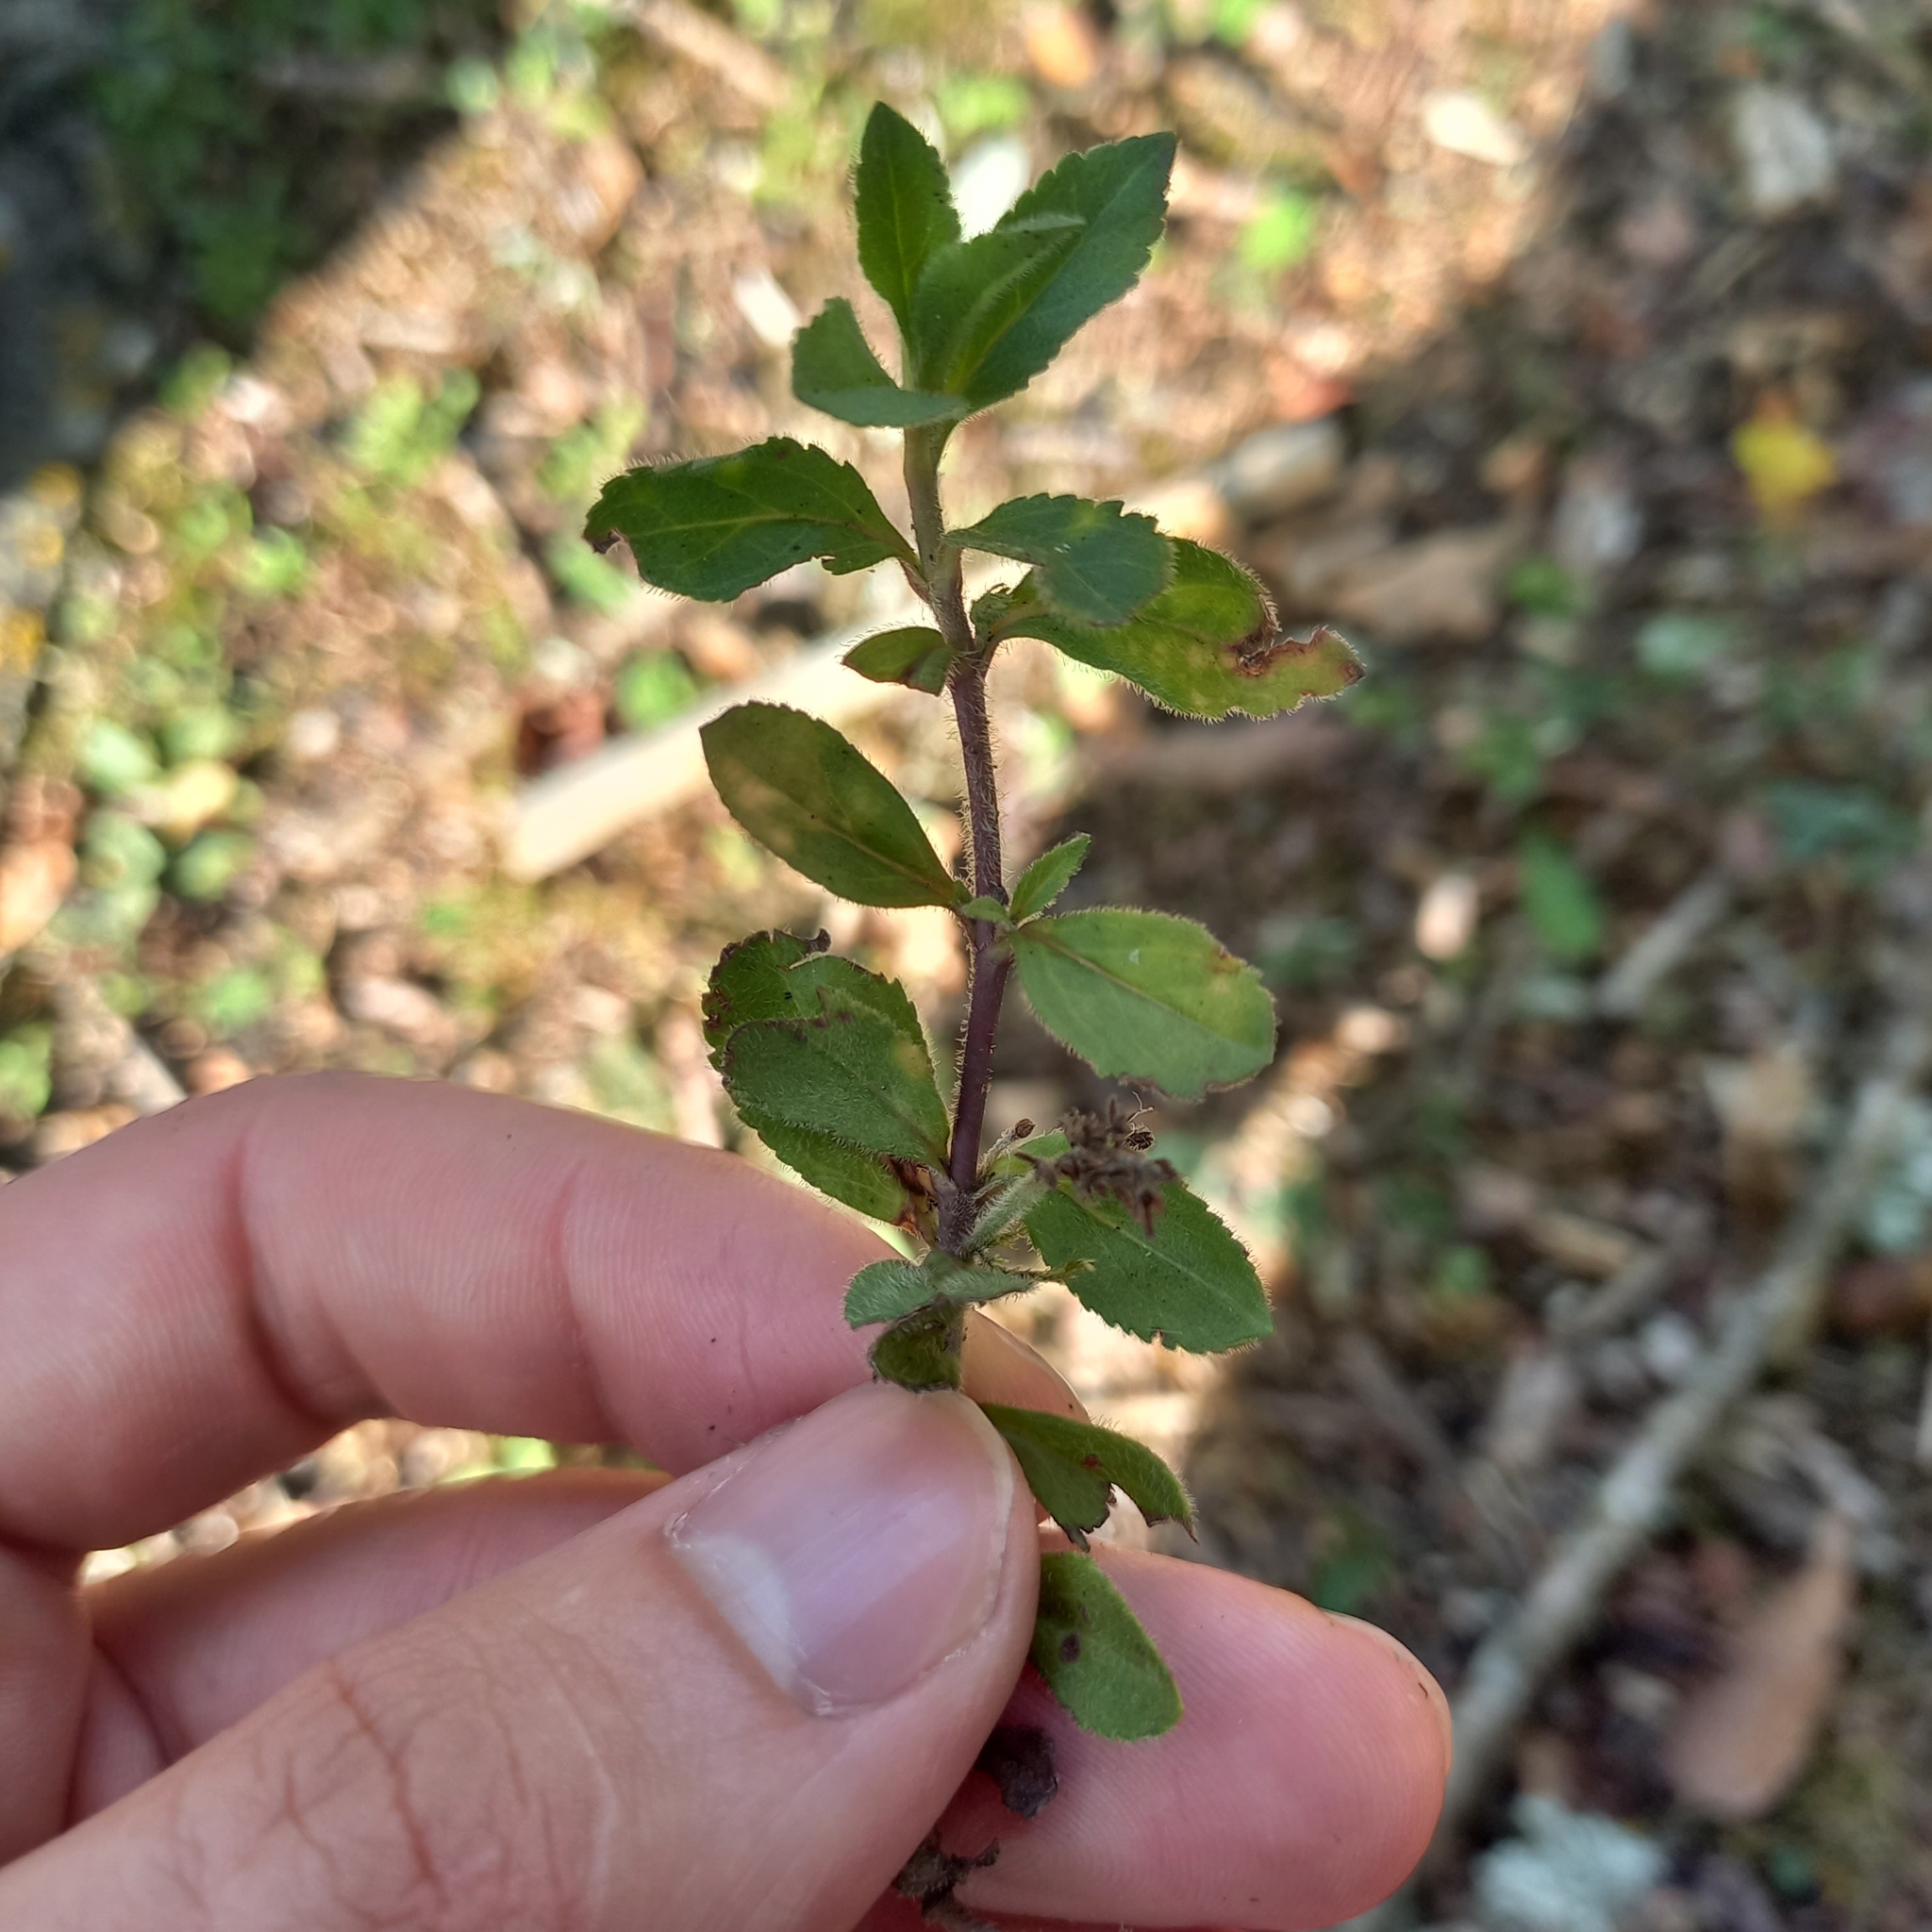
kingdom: Plantae
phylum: Tracheophyta
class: Magnoliopsida
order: Lamiales
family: Plantaginaceae
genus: Veronica
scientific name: Veronica officinalis
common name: Common speedwell
